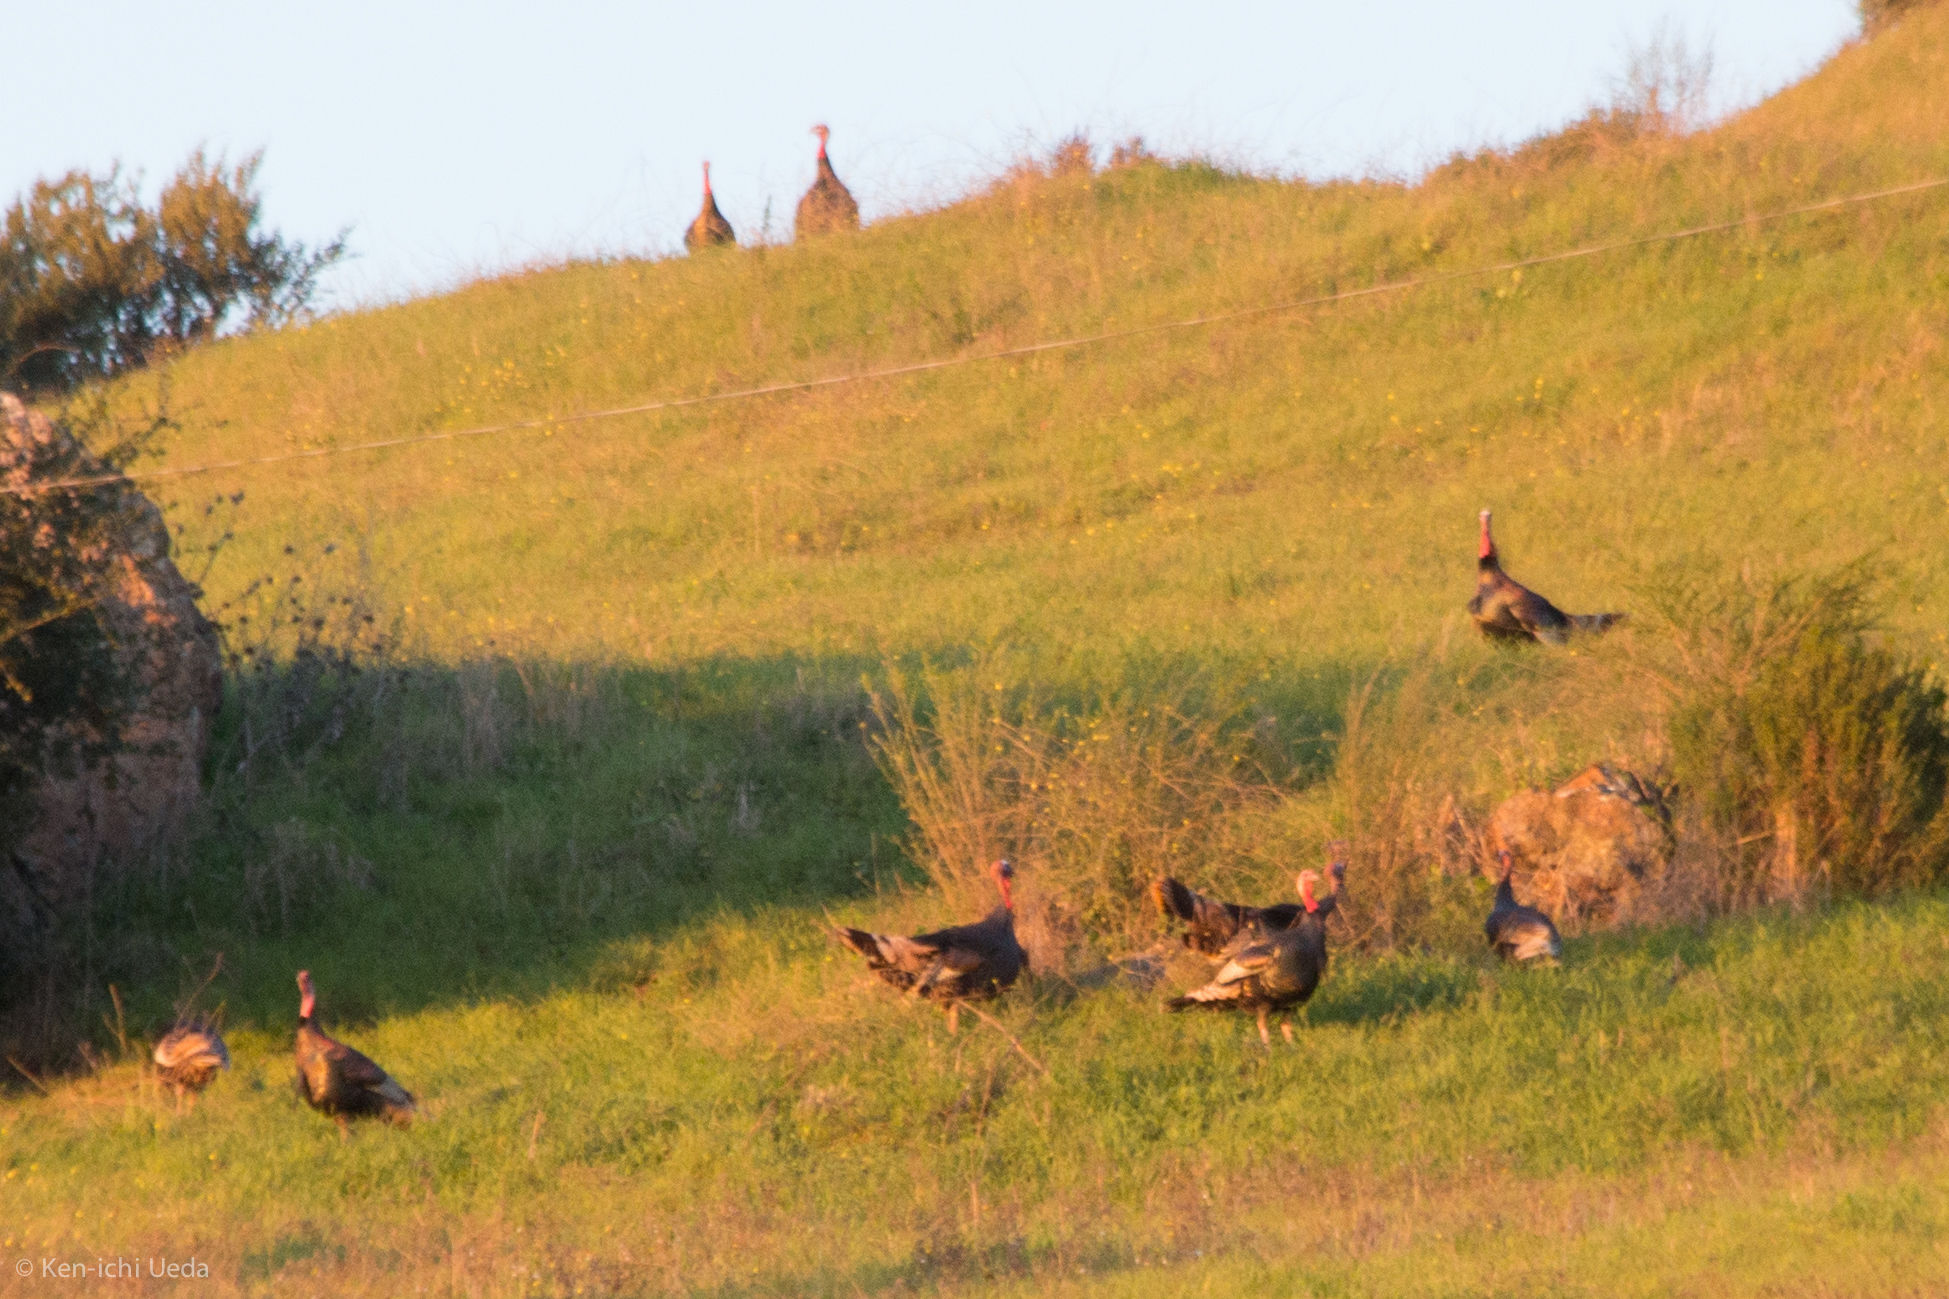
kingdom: Animalia
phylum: Chordata
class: Aves
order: Galliformes
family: Phasianidae
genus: Meleagris
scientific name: Meleagris gallopavo
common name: Wild turkey
